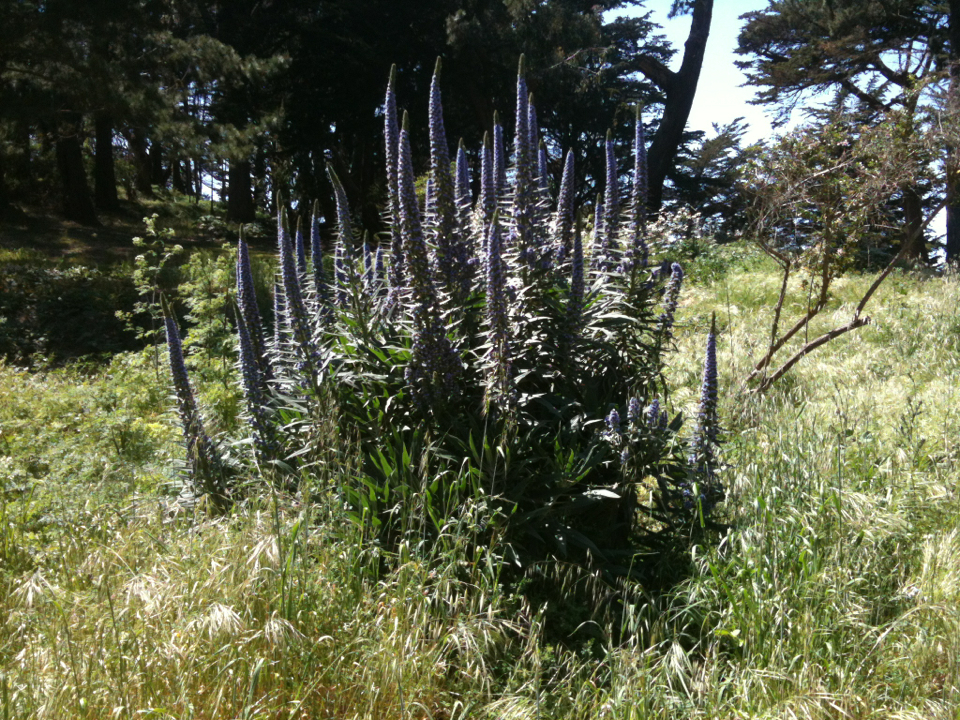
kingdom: Plantae
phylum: Tracheophyta
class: Magnoliopsida
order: Boraginales
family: Boraginaceae
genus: Echium
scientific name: Echium candicans
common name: Pride of madeira
